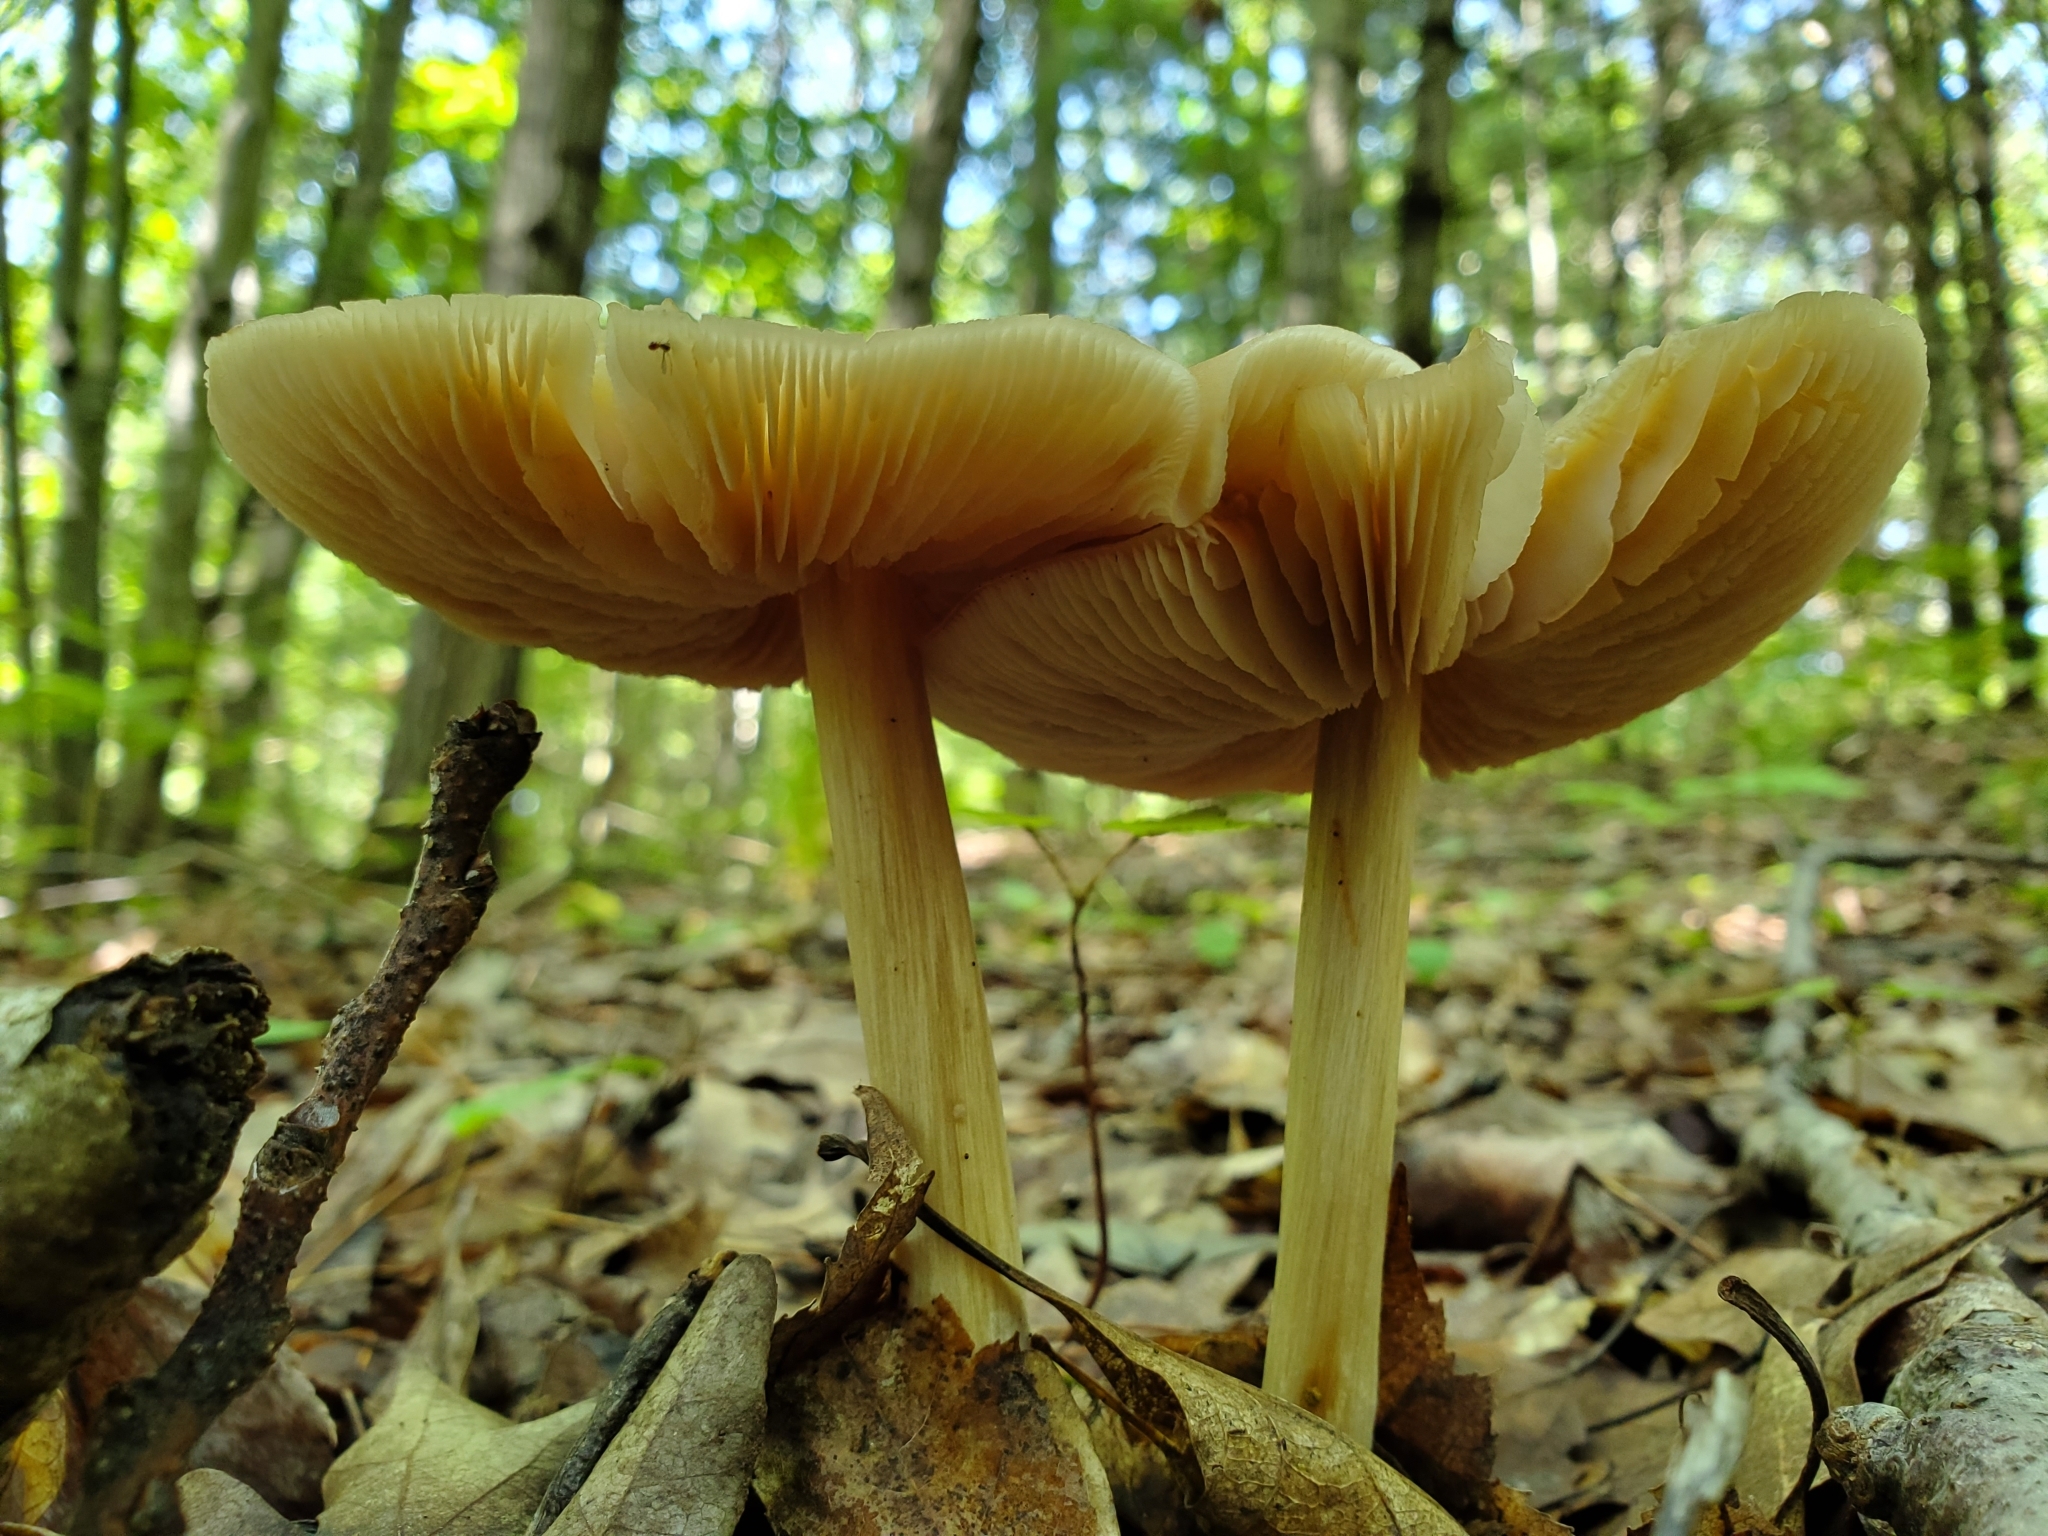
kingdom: Fungi
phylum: Basidiomycota
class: Agaricomycetes
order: Agaricales
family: Entolomataceae
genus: Entoloma
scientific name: Entoloma strictius
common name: Straight-stalked entoloma
